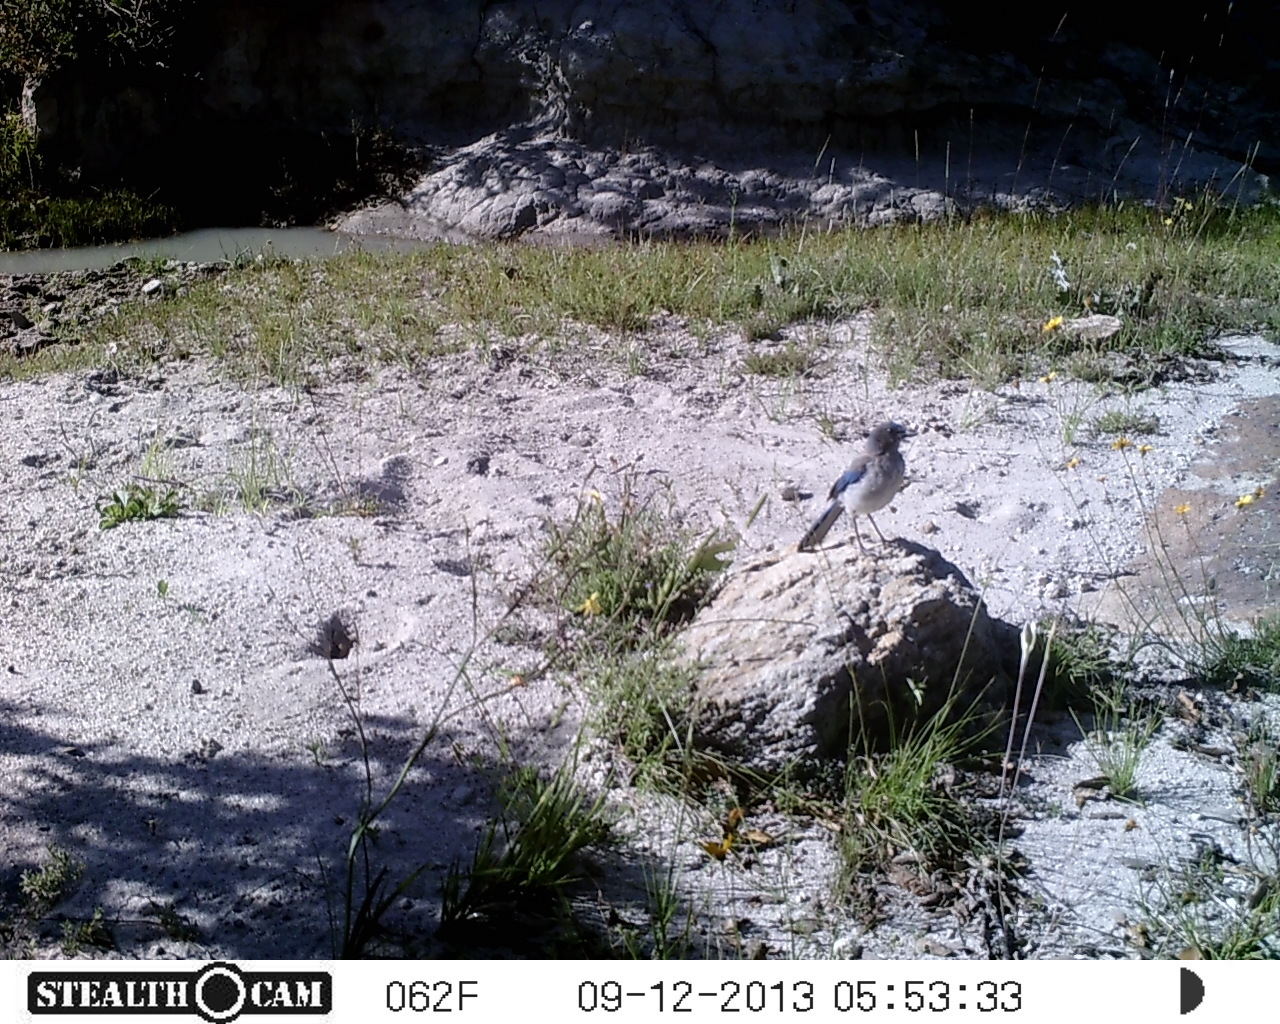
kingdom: Animalia
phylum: Chordata
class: Aves
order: Passeriformes
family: Corvidae
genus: Aphelocoma
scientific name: Aphelocoma woodhouseii
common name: Woodhouse's scrub-jay
